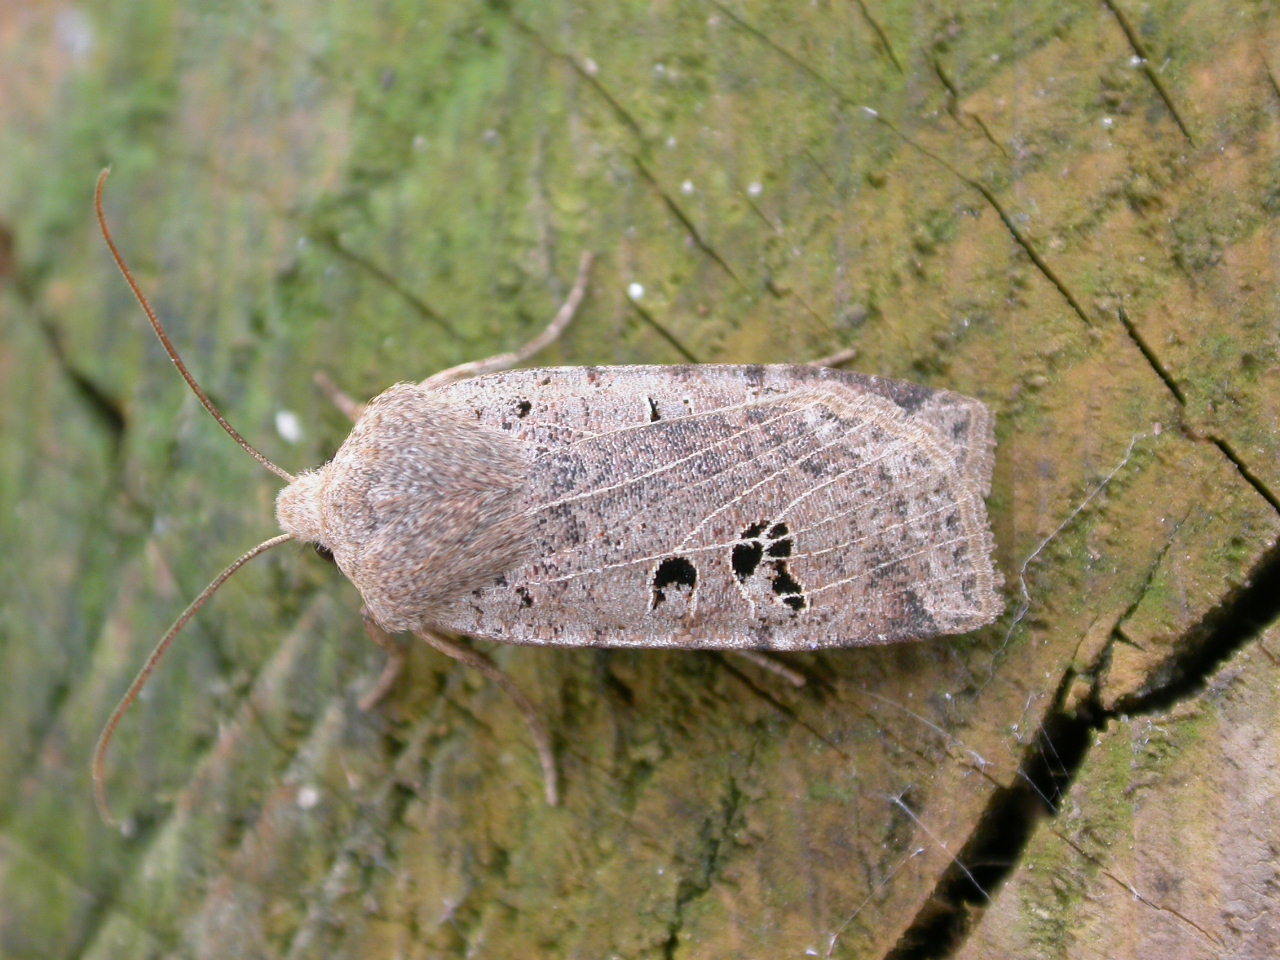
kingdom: Animalia
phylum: Arthropoda
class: Insecta
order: Lepidoptera
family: Noctuidae
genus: Conistra
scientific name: Conistra rubiginosa
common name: Black-spotted chestnut
